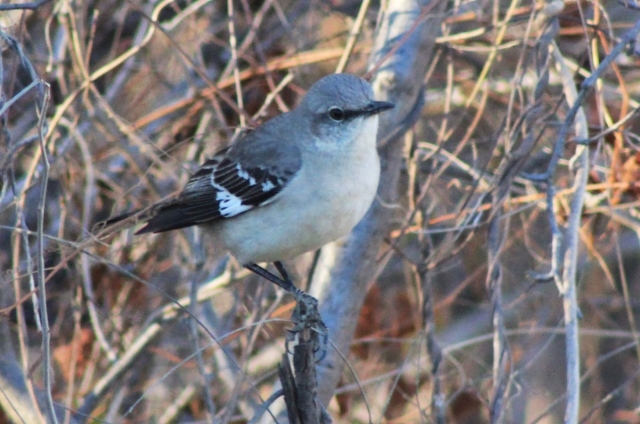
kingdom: Animalia
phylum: Chordata
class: Aves
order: Passeriformes
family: Mimidae
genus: Mimus
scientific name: Mimus polyglottos
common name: Northern mockingbird
